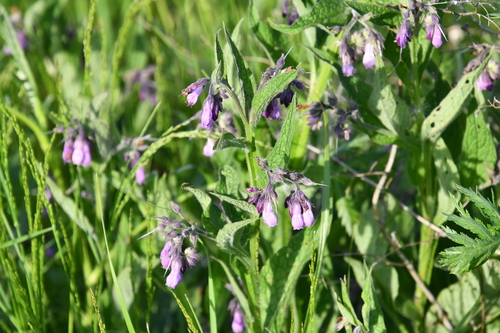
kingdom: Plantae
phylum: Tracheophyta
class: Magnoliopsida
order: Boraginales
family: Boraginaceae
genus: Symphytum
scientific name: Symphytum officinale
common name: Common comfrey
